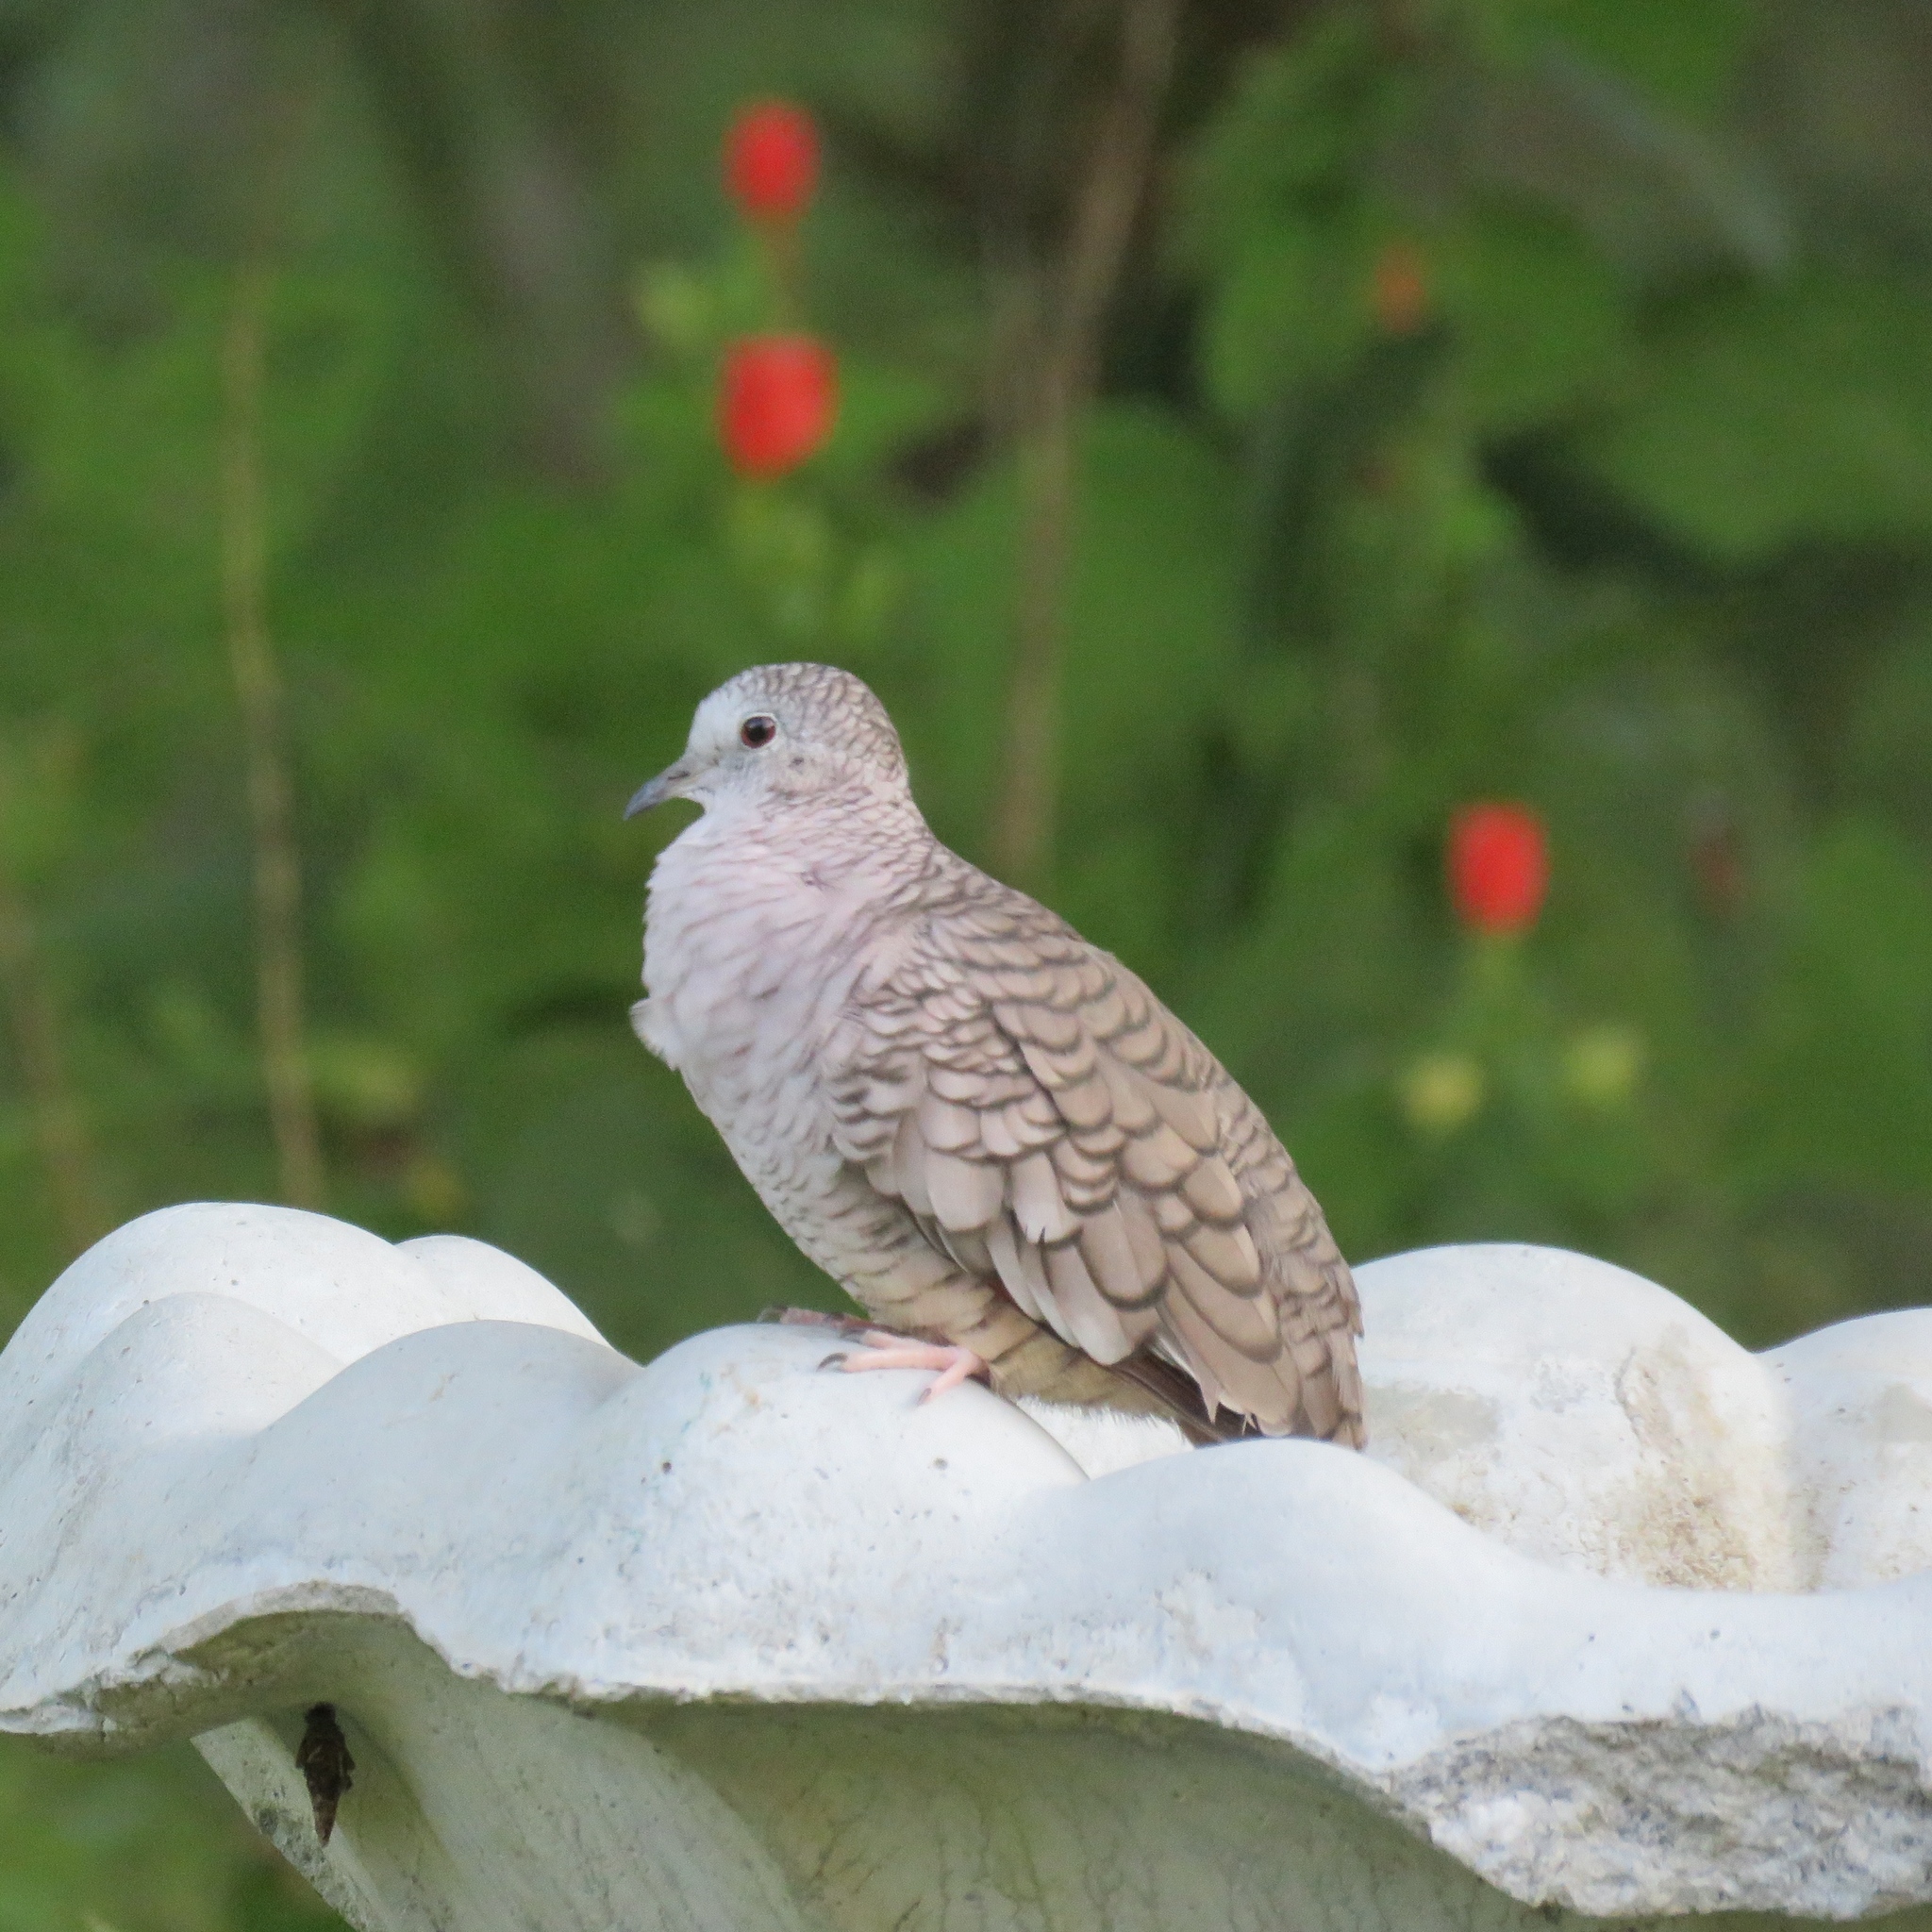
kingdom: Animalia
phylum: Chordata
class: Aves
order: Columbiformes
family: Columbidae
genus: Columbina
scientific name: Columbina inca
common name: Inca dove
